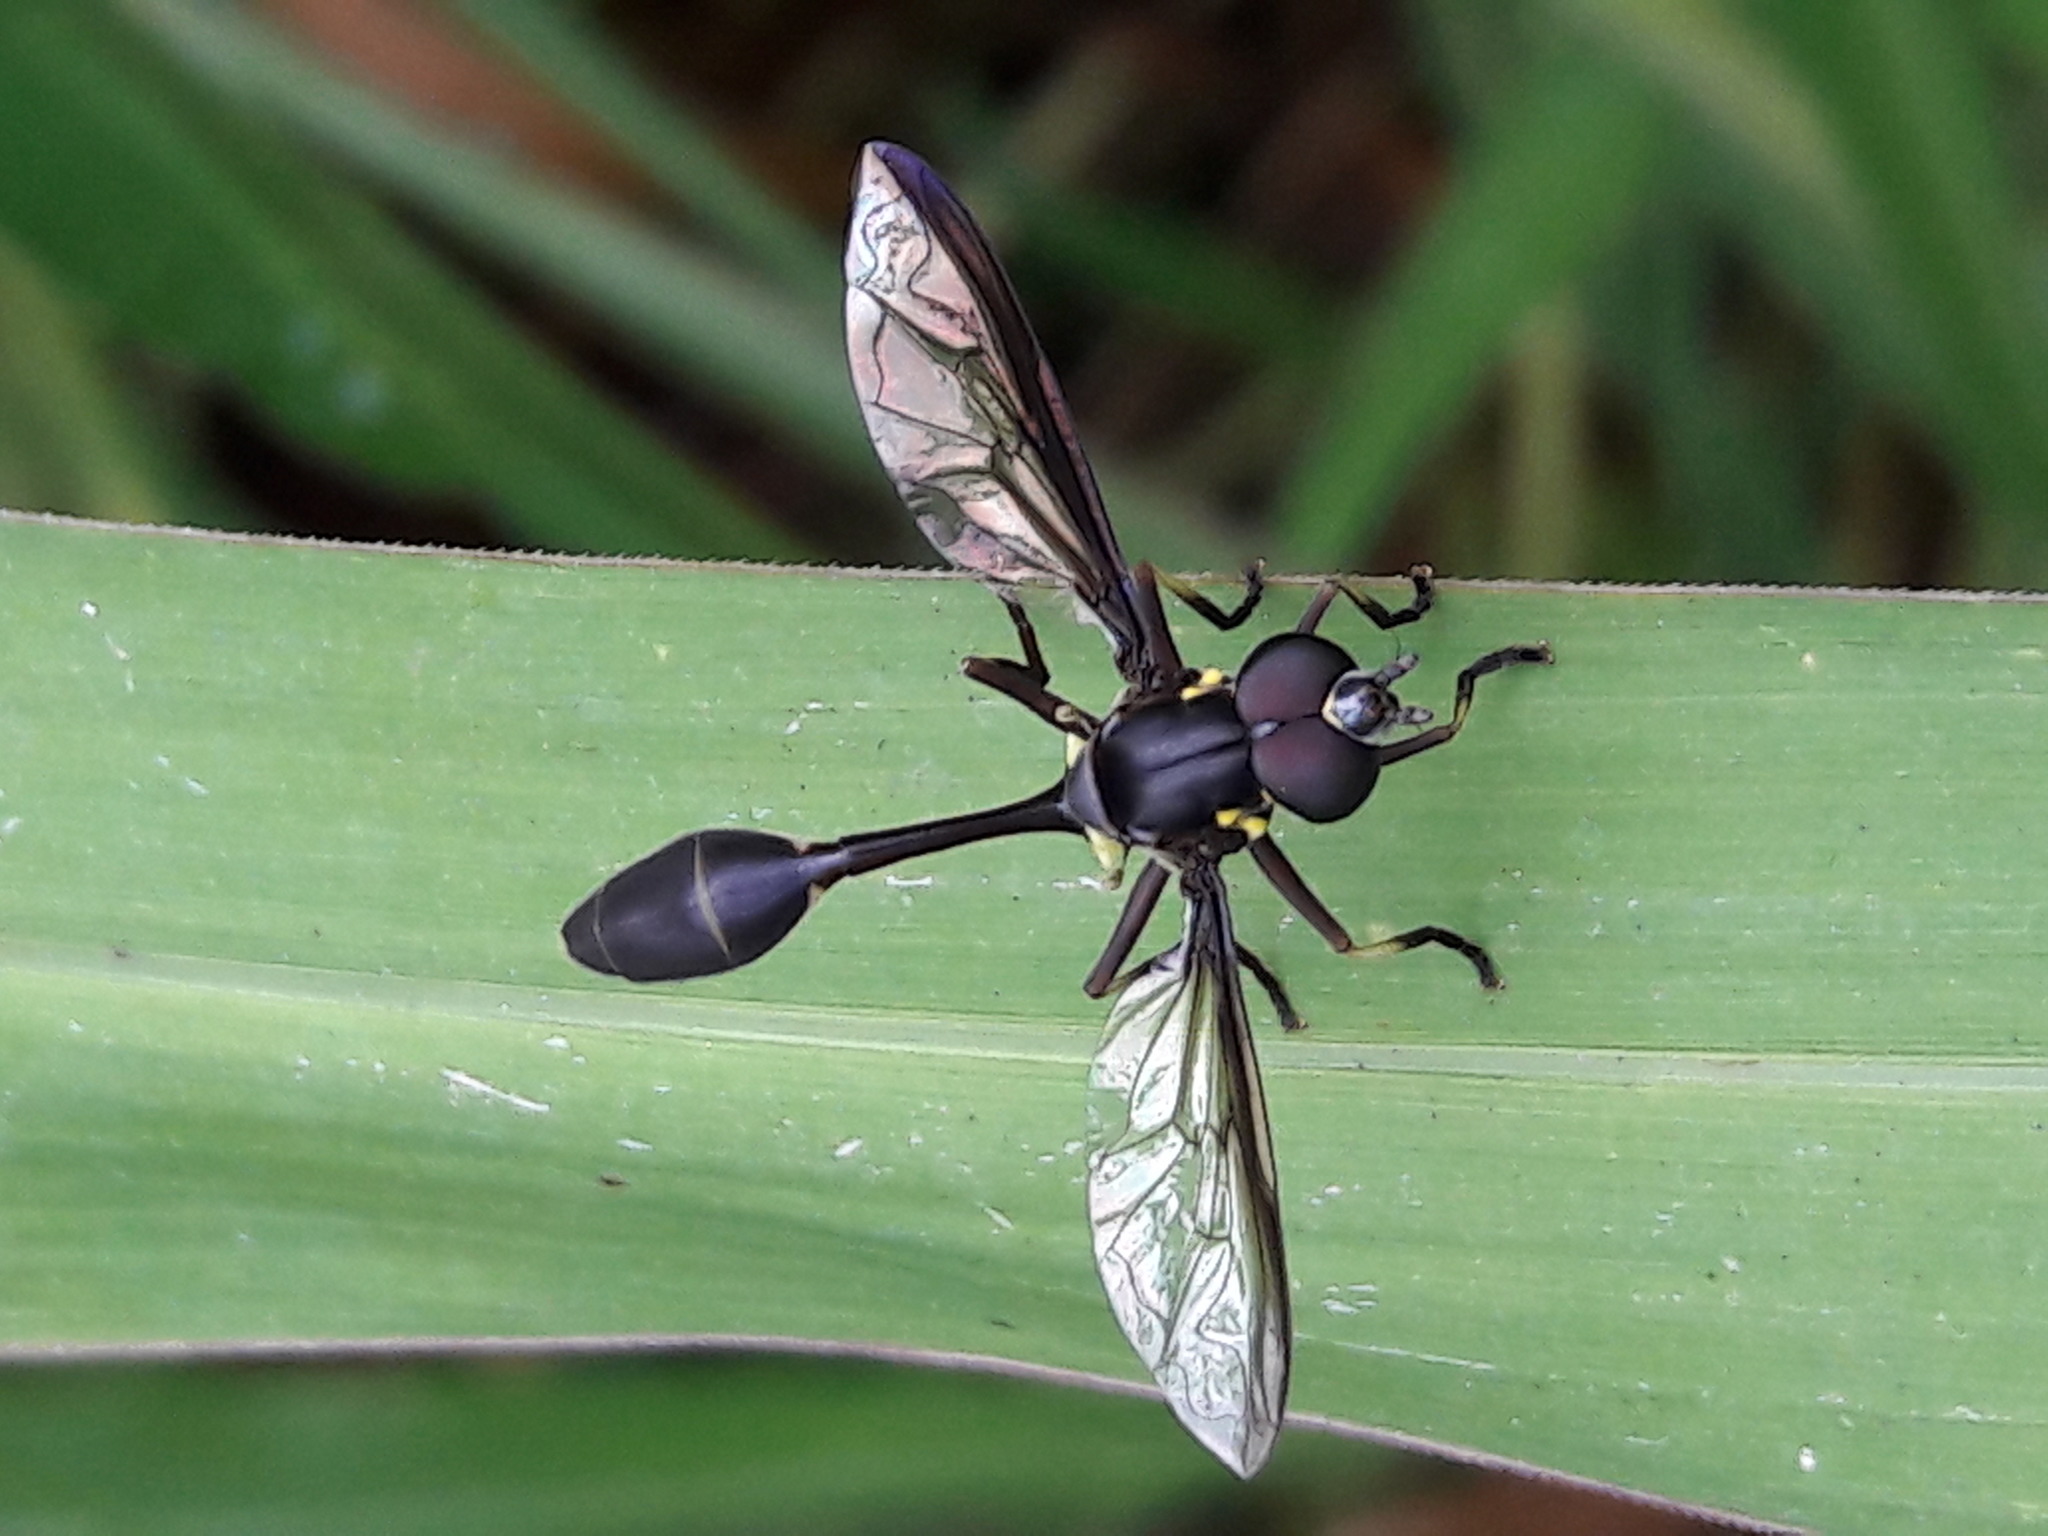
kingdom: Animalia
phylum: Arthropoda
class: Insecta
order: Diptera
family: Syrphidae
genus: Salpingogaster
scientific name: Salpingogaster nigra
